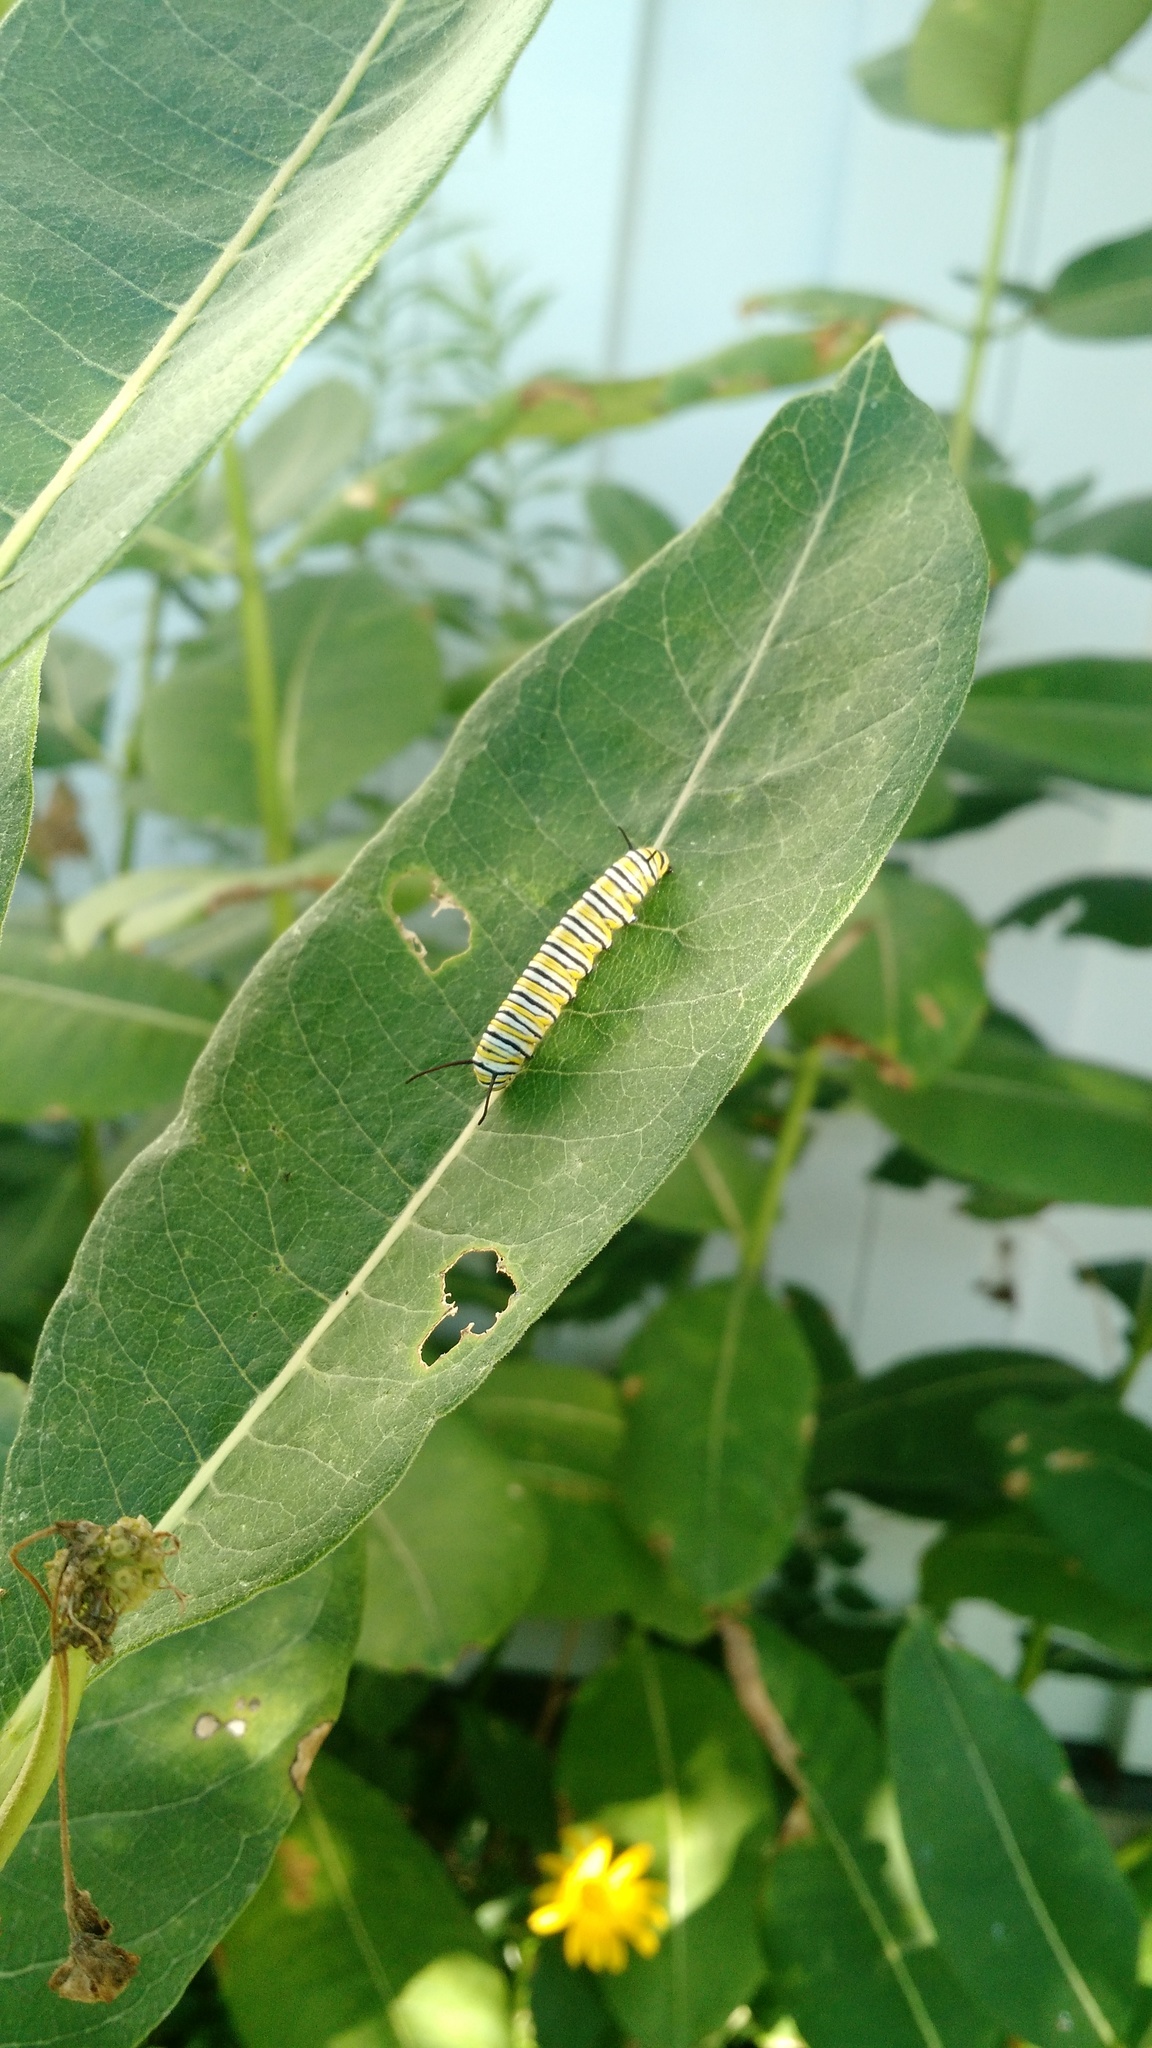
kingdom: Animalia
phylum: Arthropoda
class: Insecta
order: Lepidoptera
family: Nymphalidae
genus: Danaus
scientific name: Danaus plexippus
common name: Monarch
